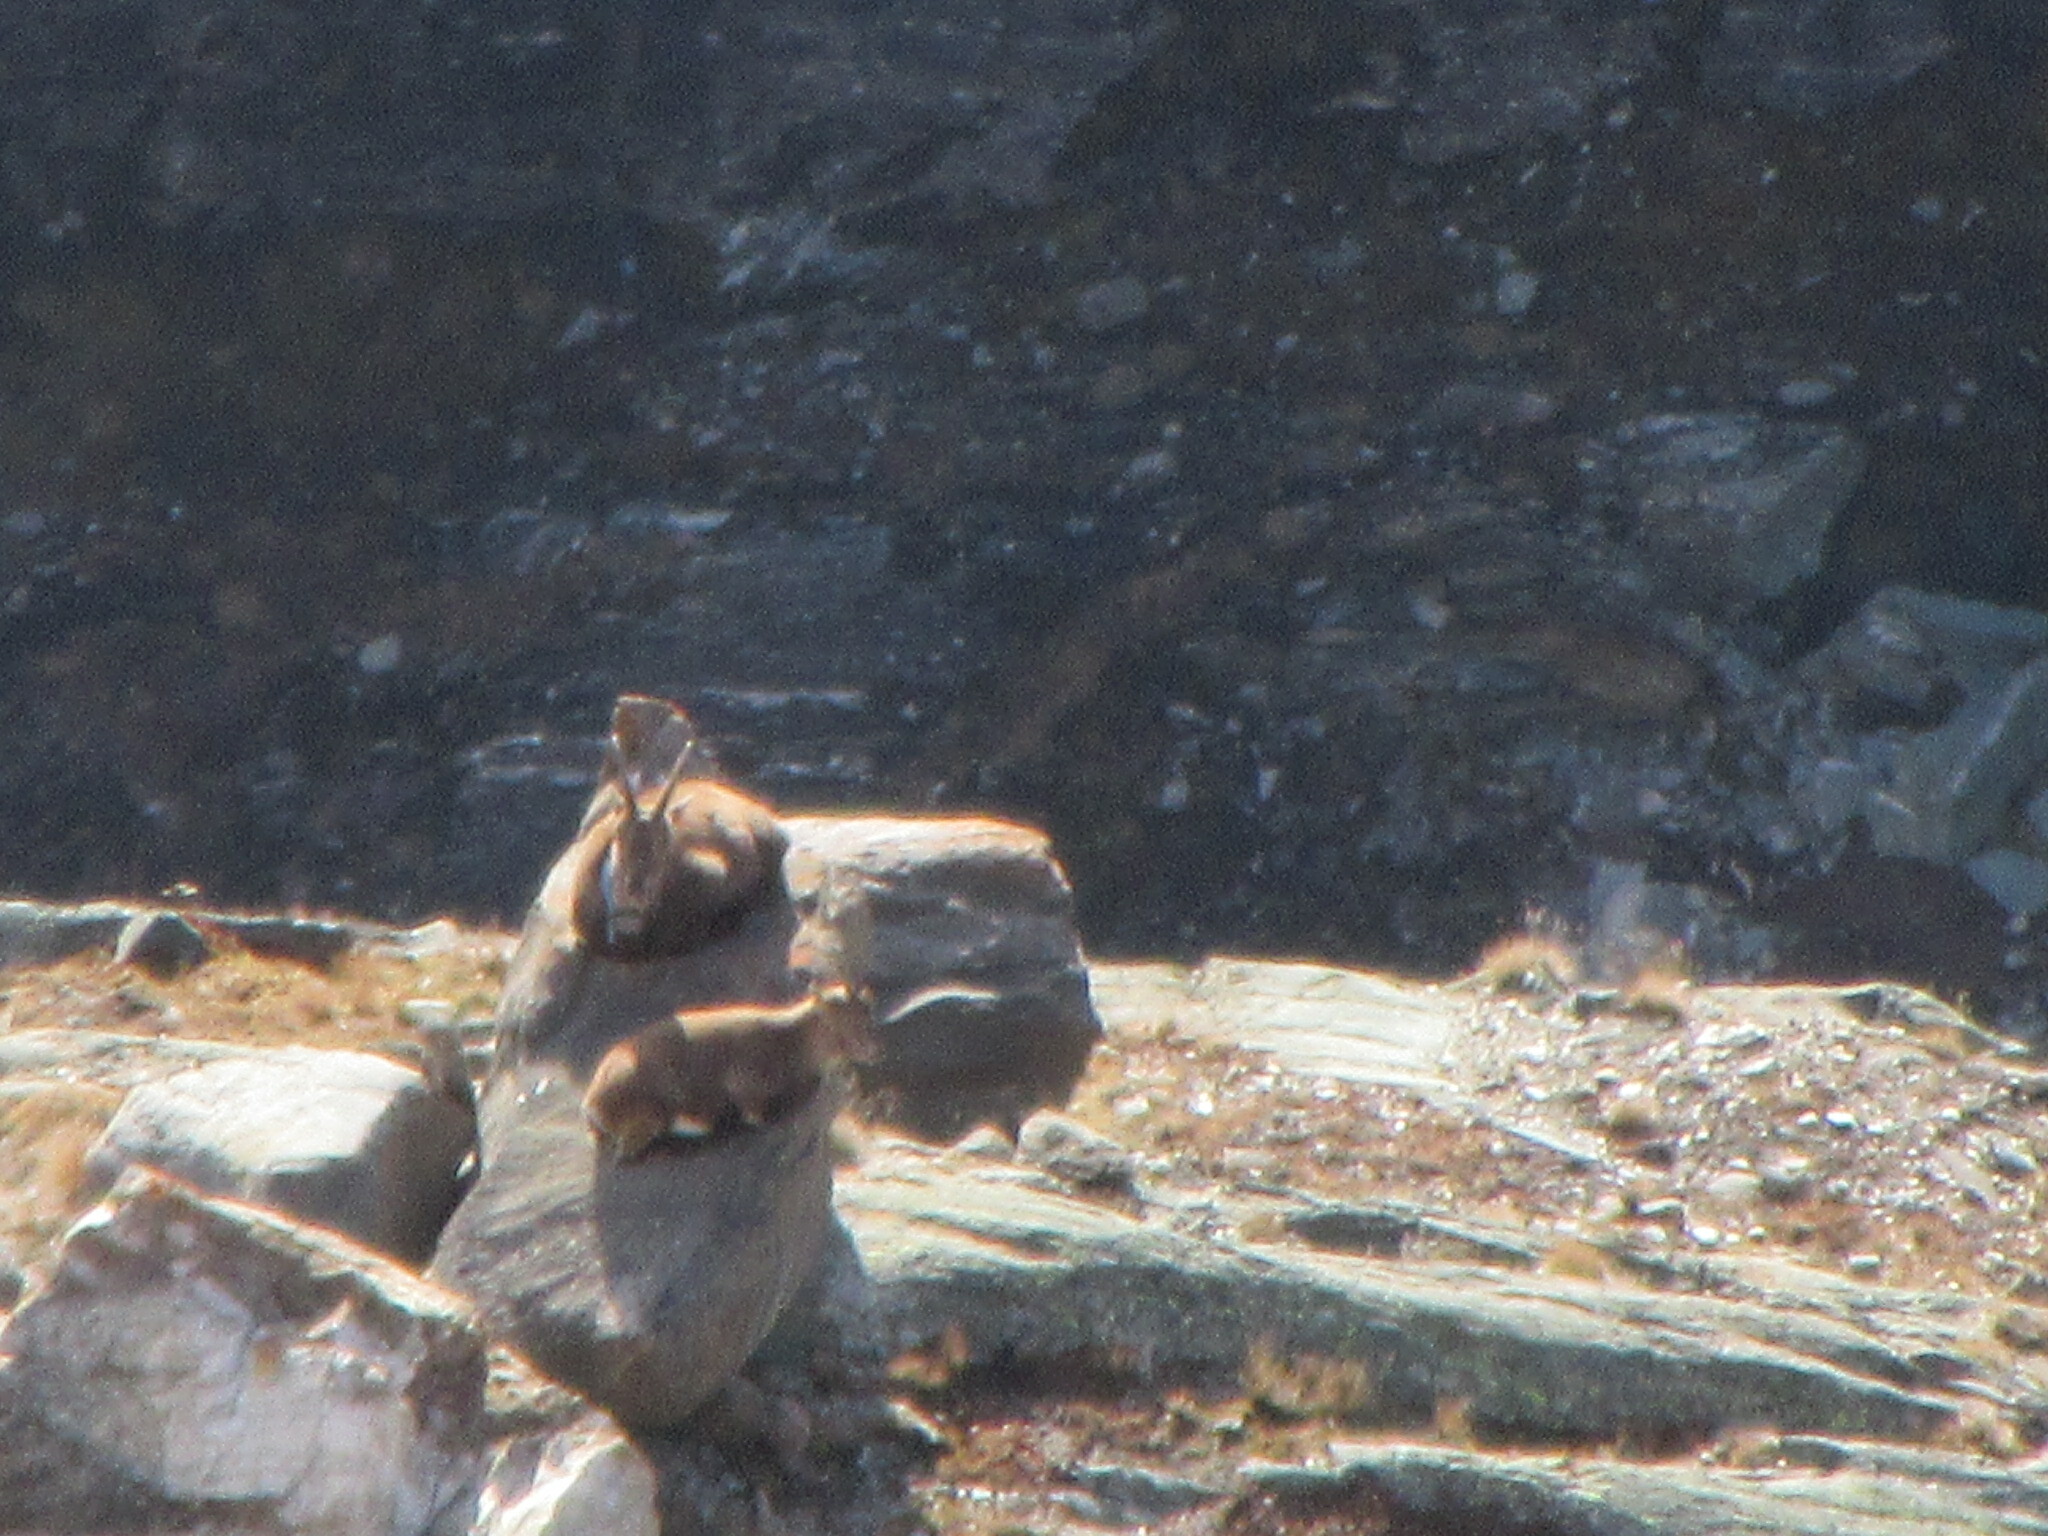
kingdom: Animalia
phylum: Chordata
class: Mammalia
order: Artiodactyla
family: Bovidae
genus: Capra
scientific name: Capra ibex
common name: Alpine ibex
